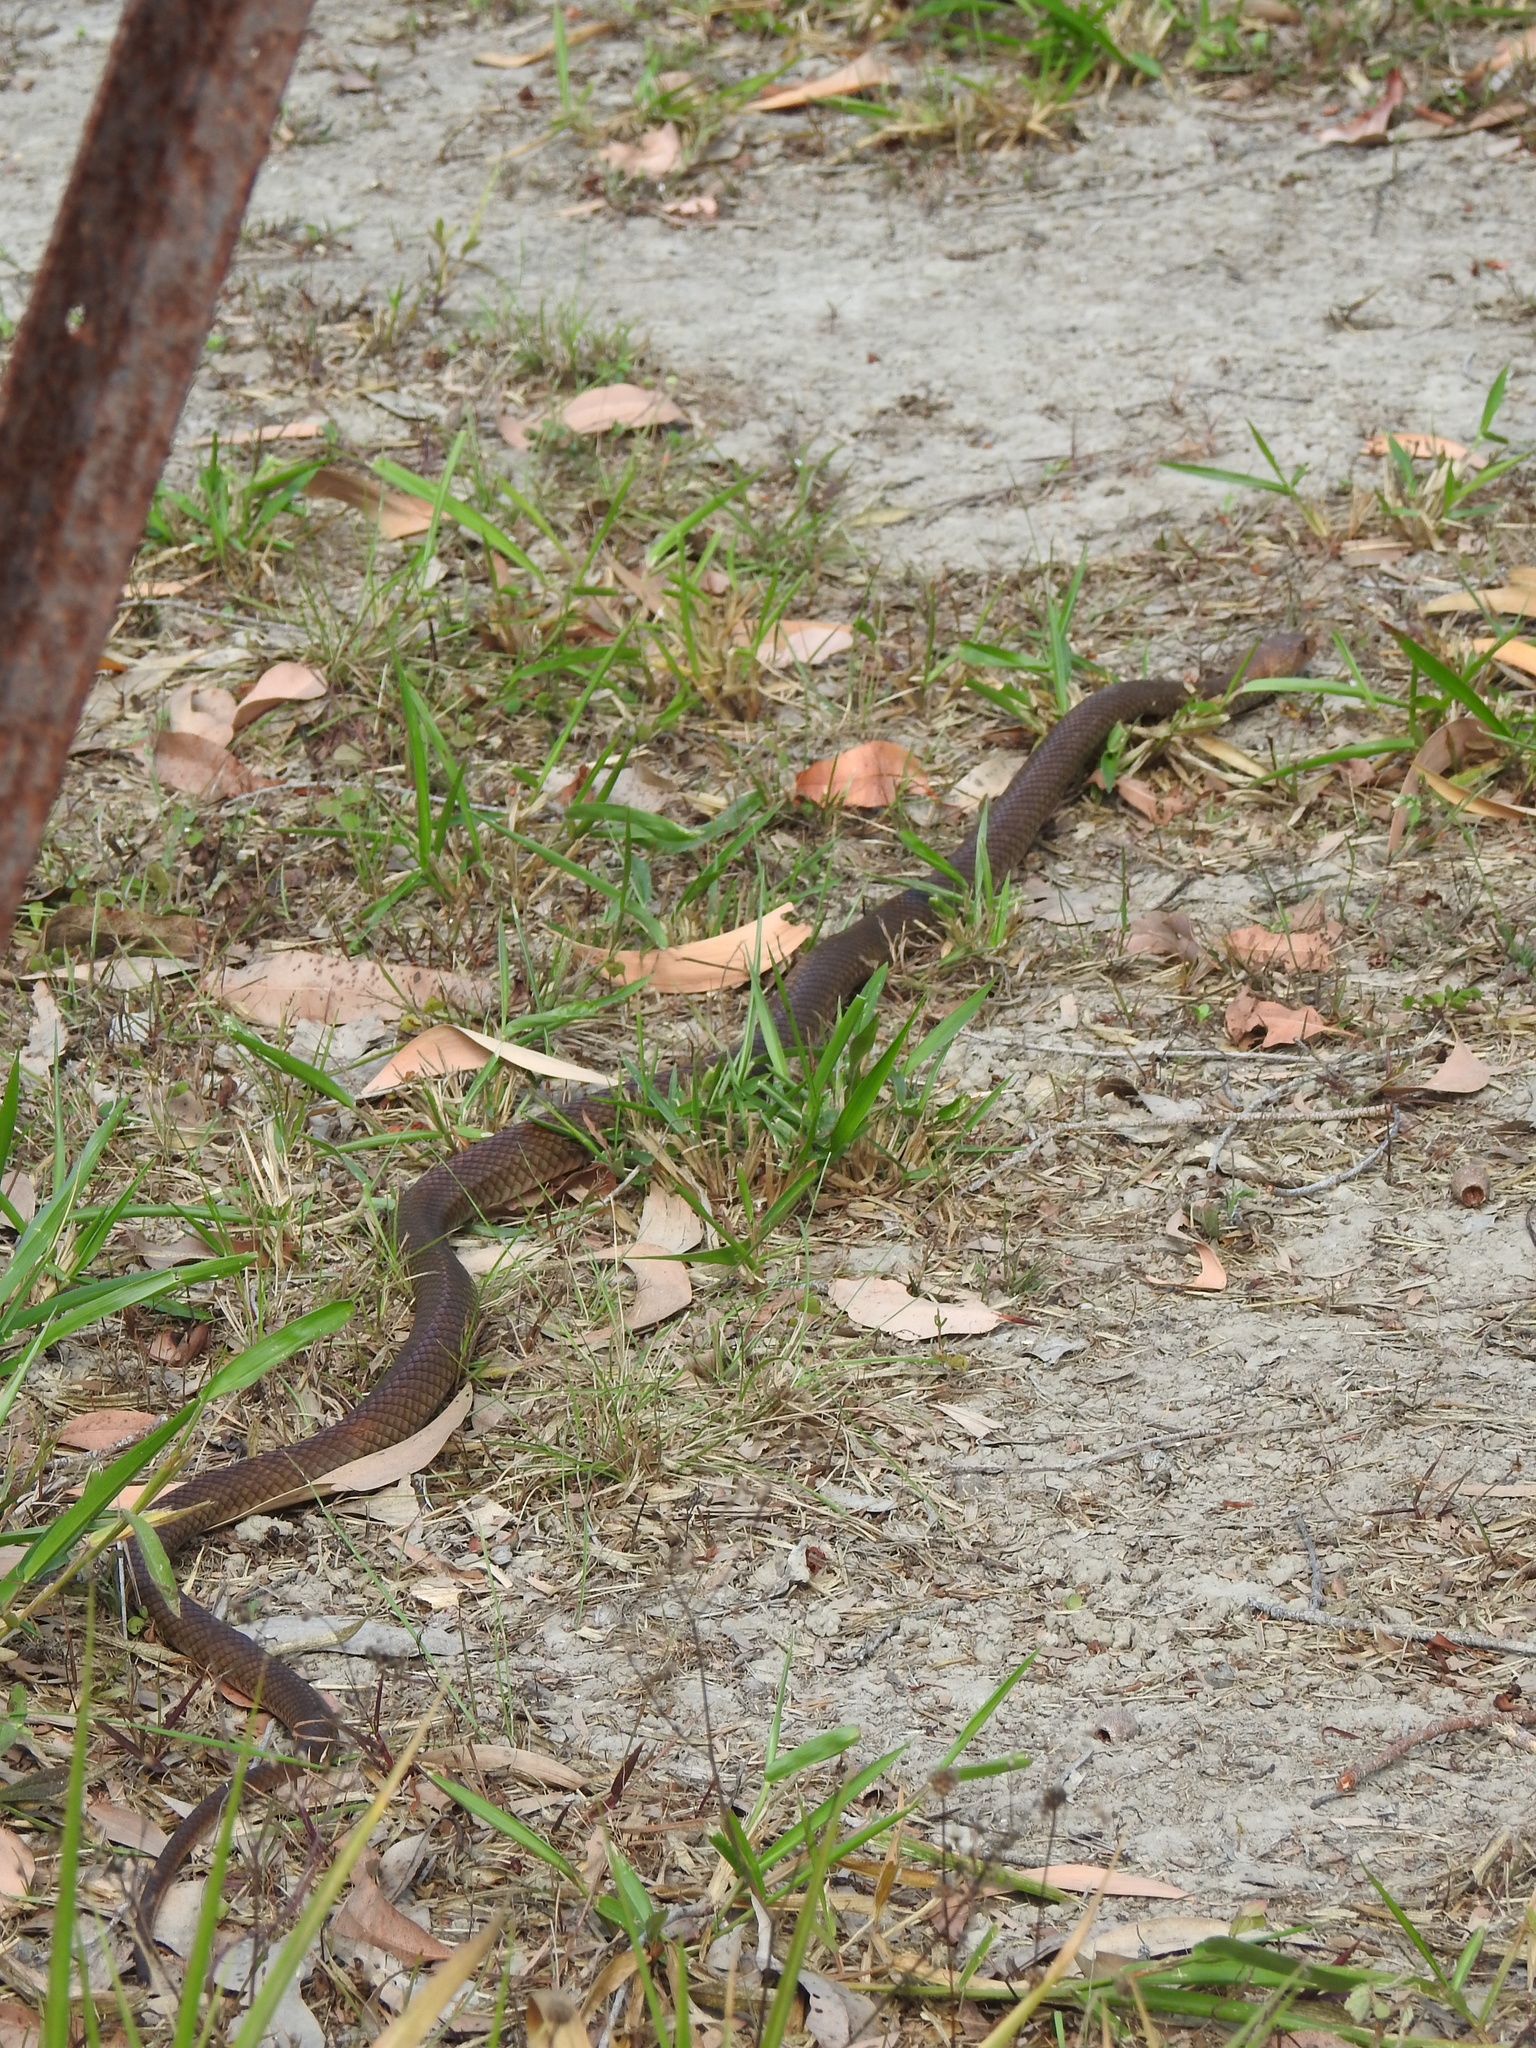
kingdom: Animalia
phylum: Chordata
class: Squamata
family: Elapidae
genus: Pseudonaja
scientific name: Pseudonaja textilis
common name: Eastern brown snake
